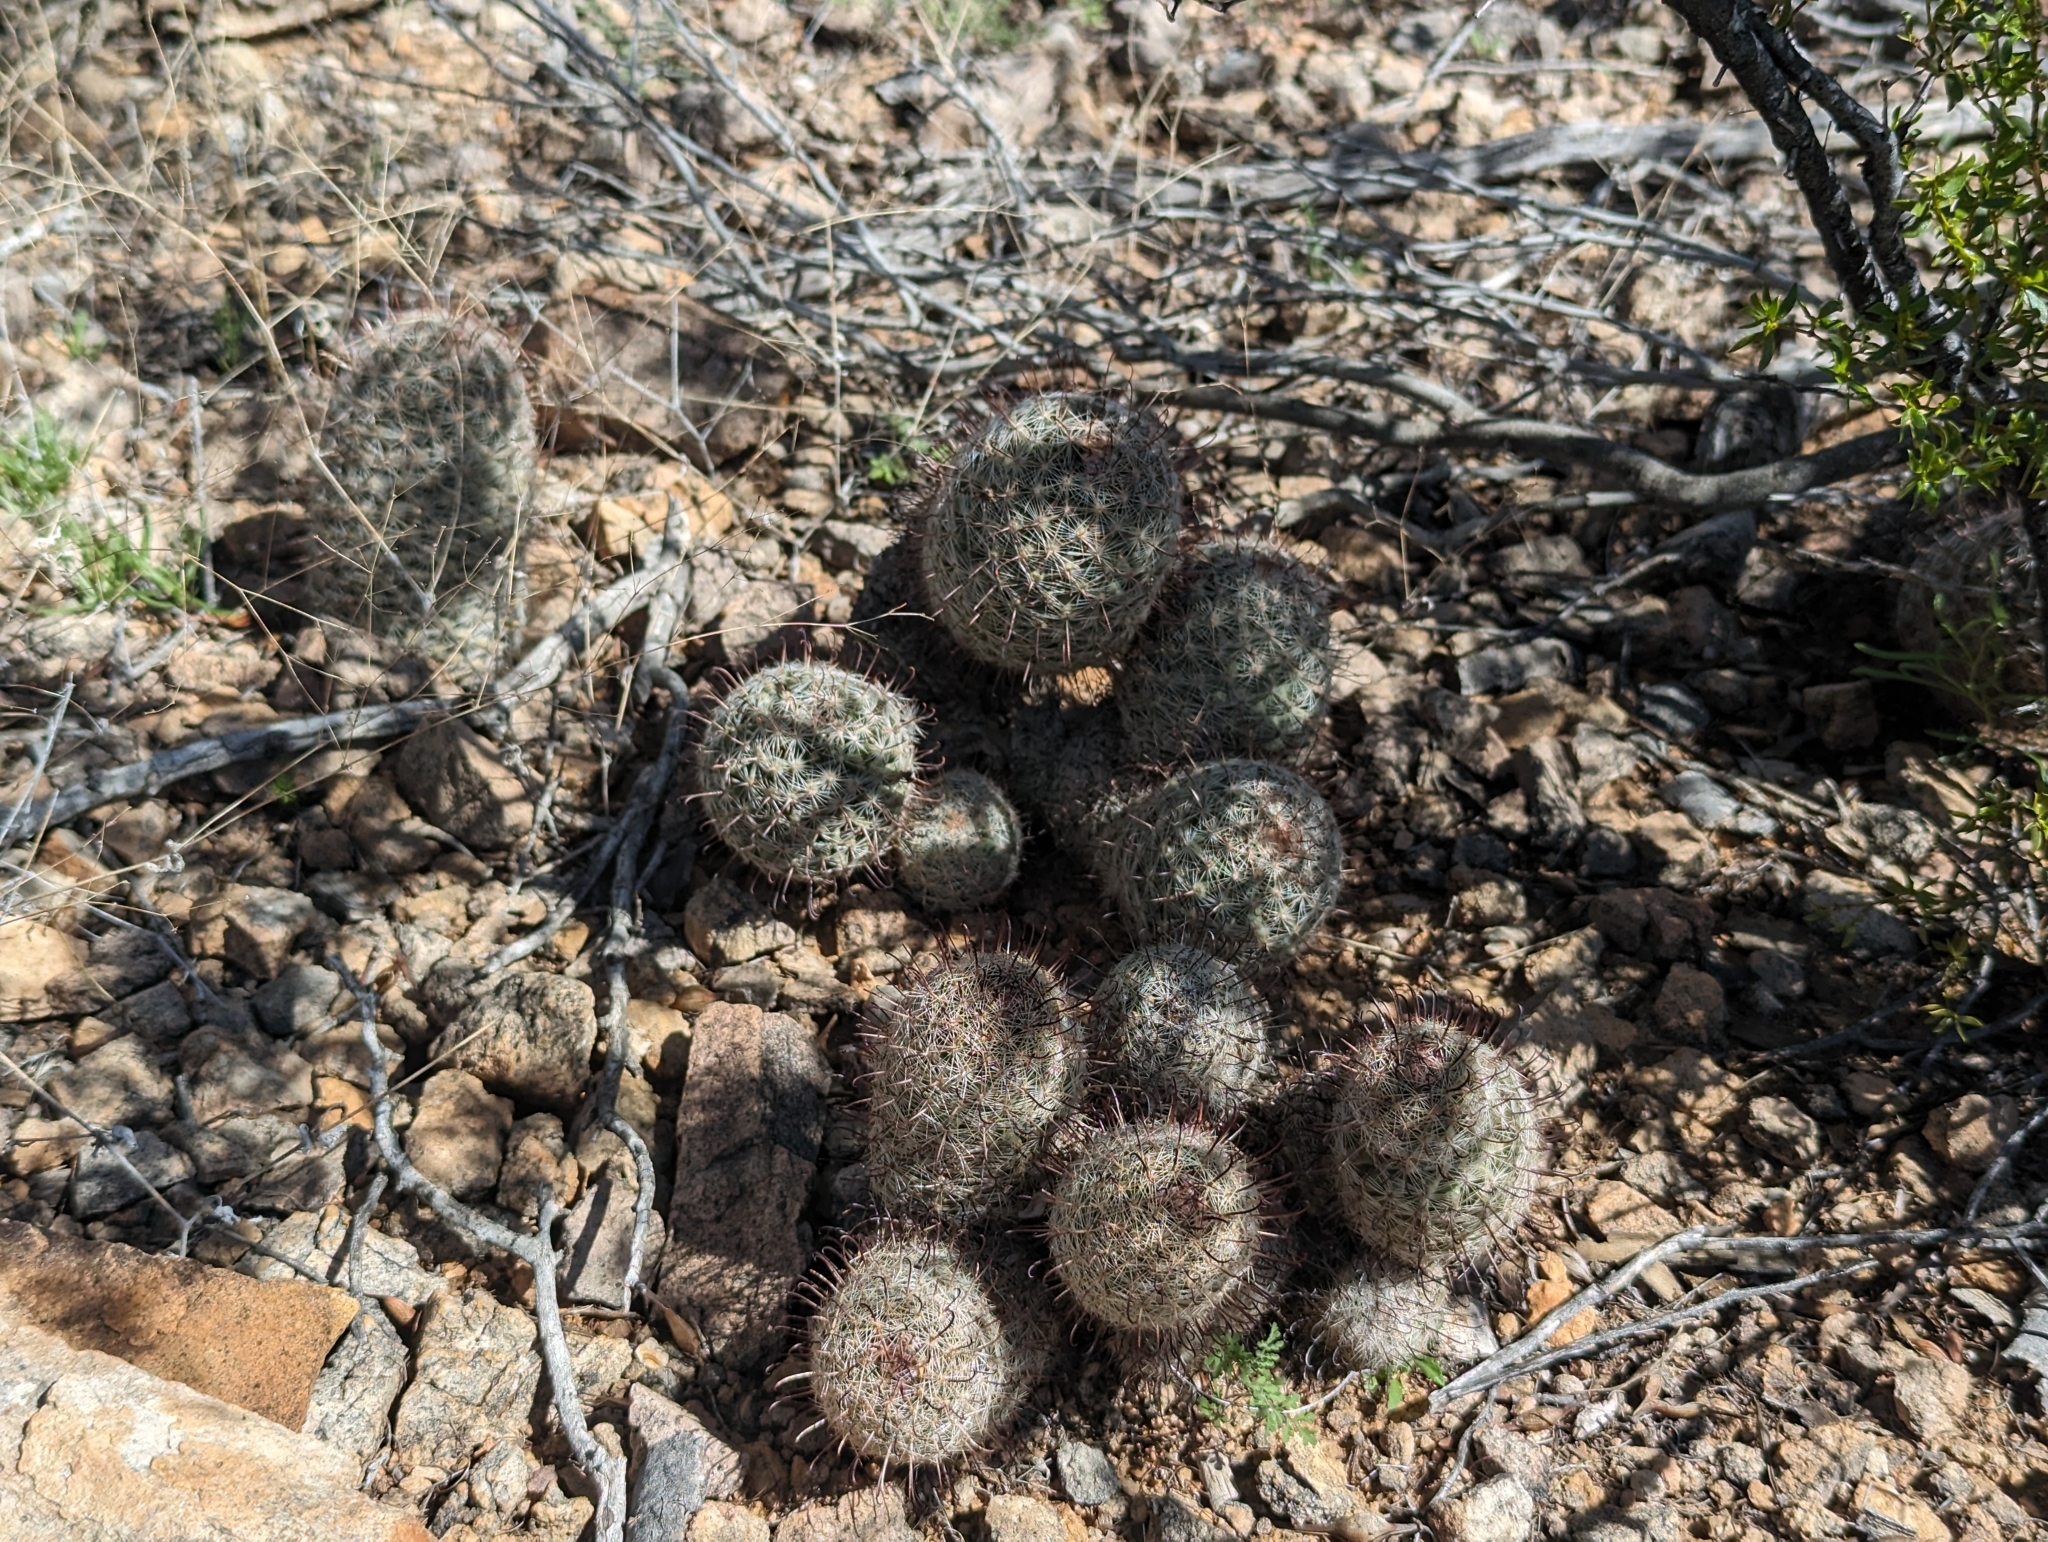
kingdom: Plantae
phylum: Tracheophyta
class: Magnoliopsida
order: Caryophyllales
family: Cactaceae
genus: Cochemiea
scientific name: Cochemiea grahamii
